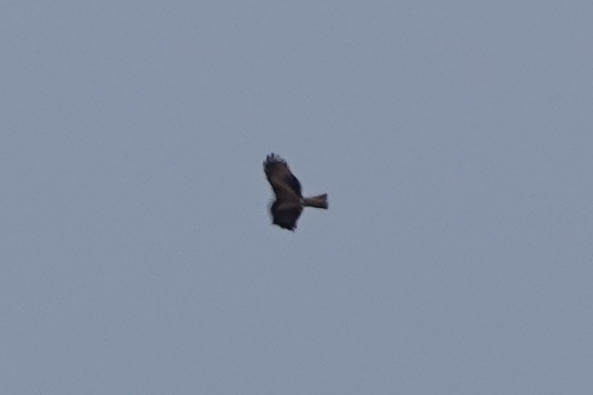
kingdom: Animalia
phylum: Chordata
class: Aves
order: Accipitriformes
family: Accipitridae
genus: Milvus
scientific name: Milvus migrans
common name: Black kite
